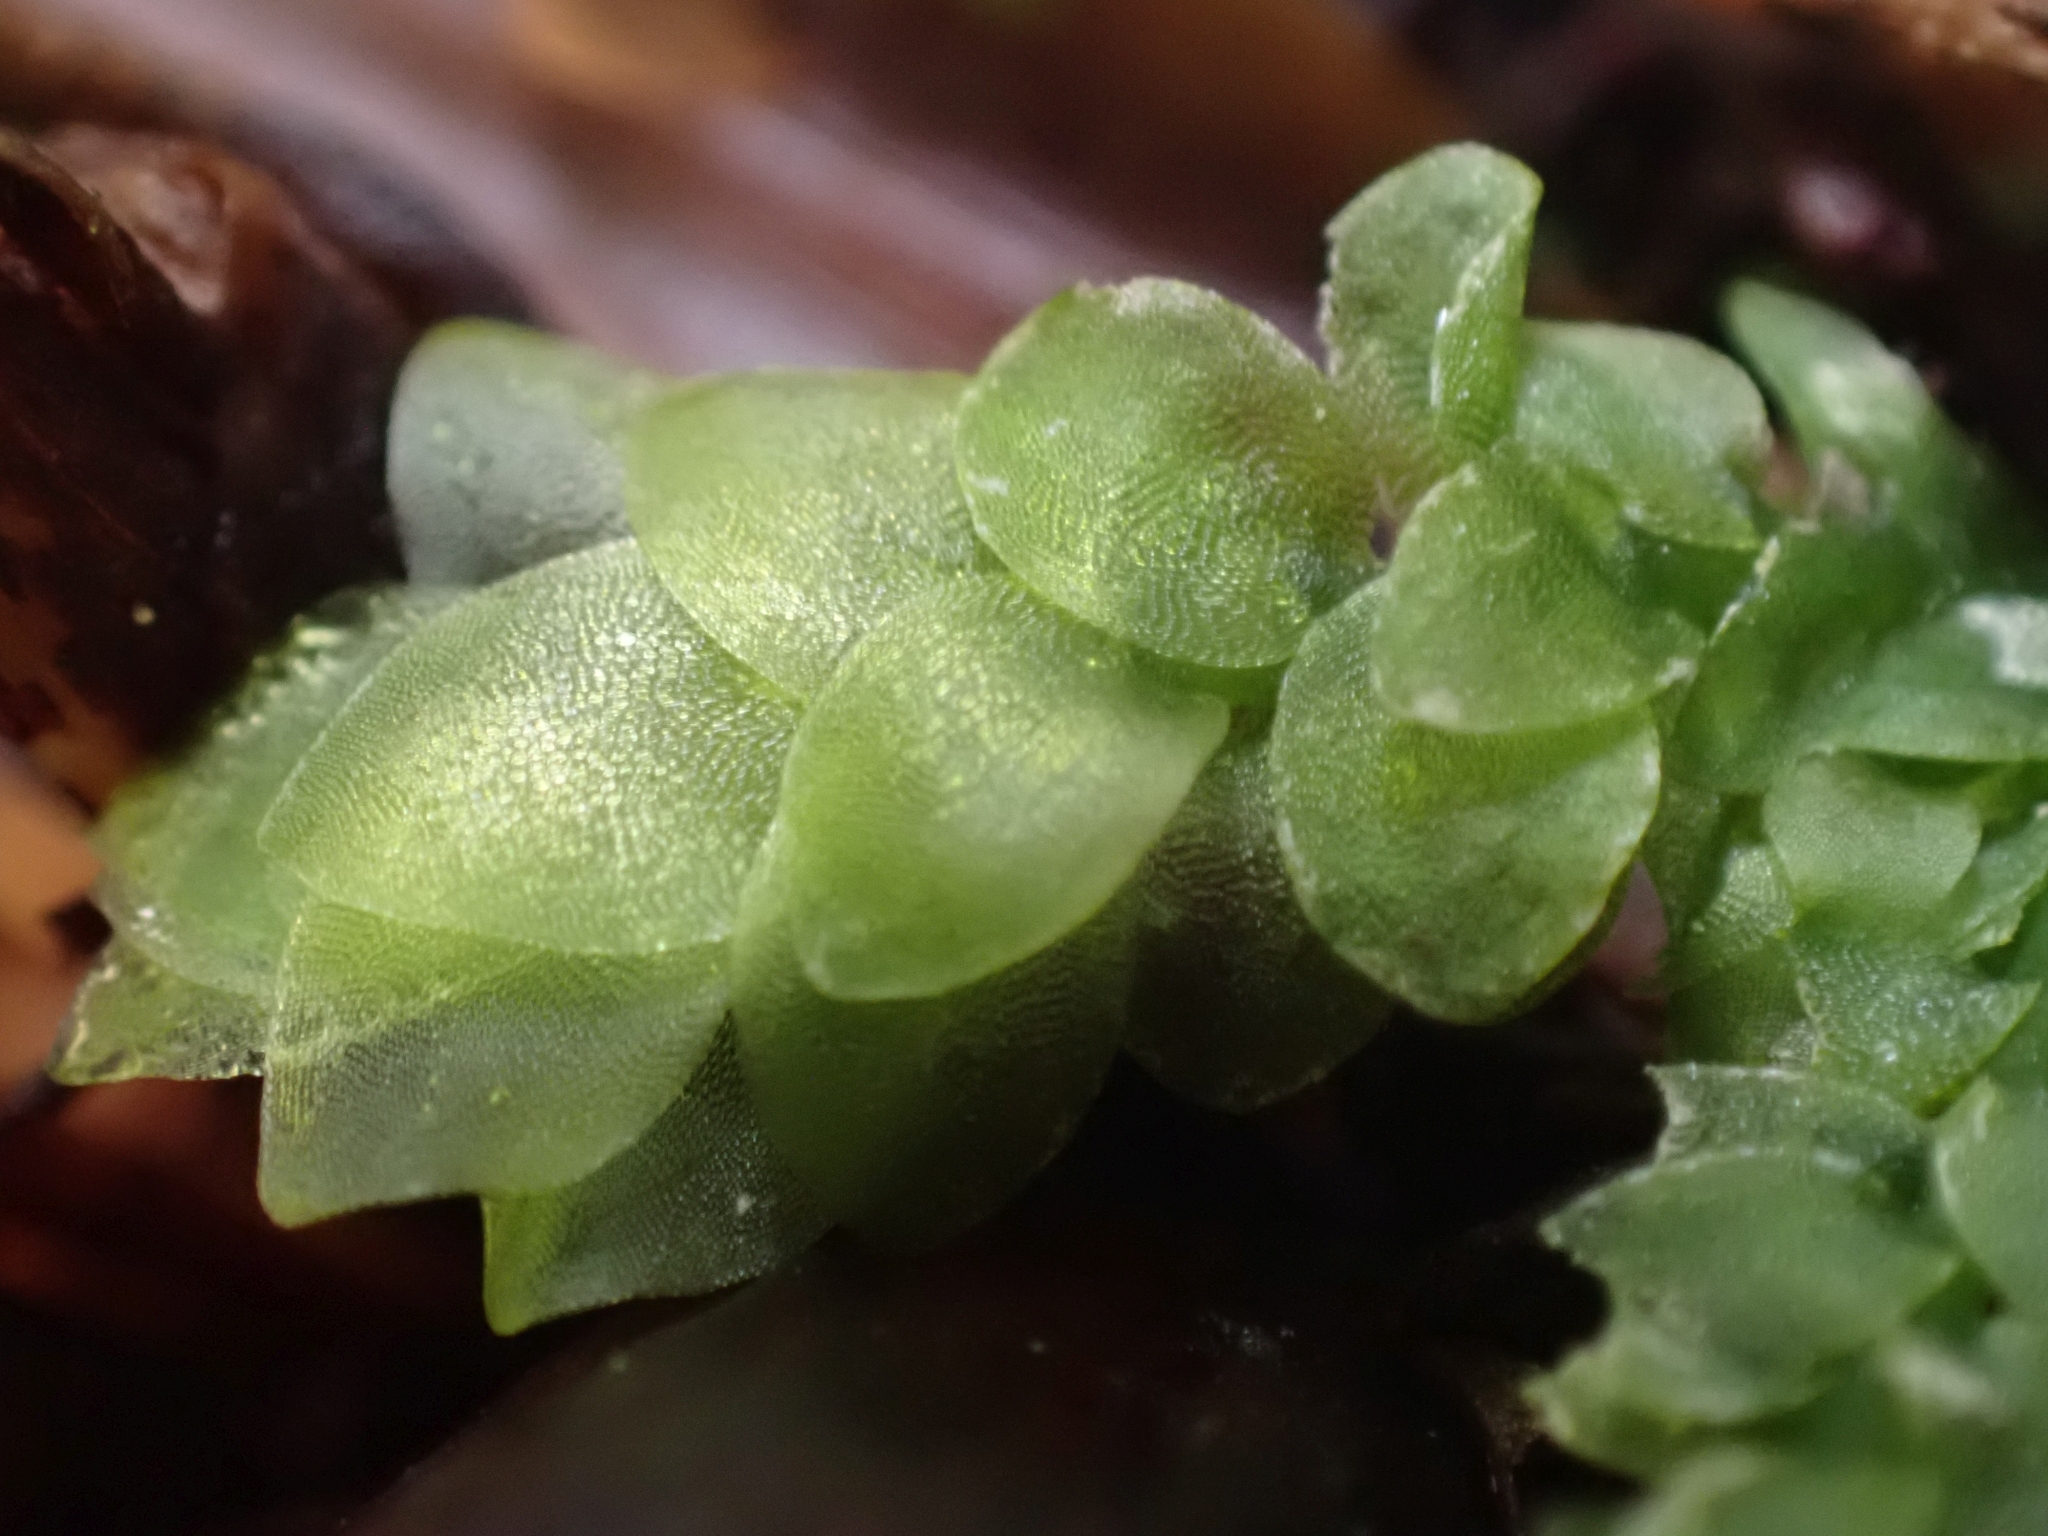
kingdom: Plantae
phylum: Bryophyta
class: Bryopsida
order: Hookeriales
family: Hookeriaceae
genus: Hookeria
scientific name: Hookeria lucens
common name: Shining hookeria
